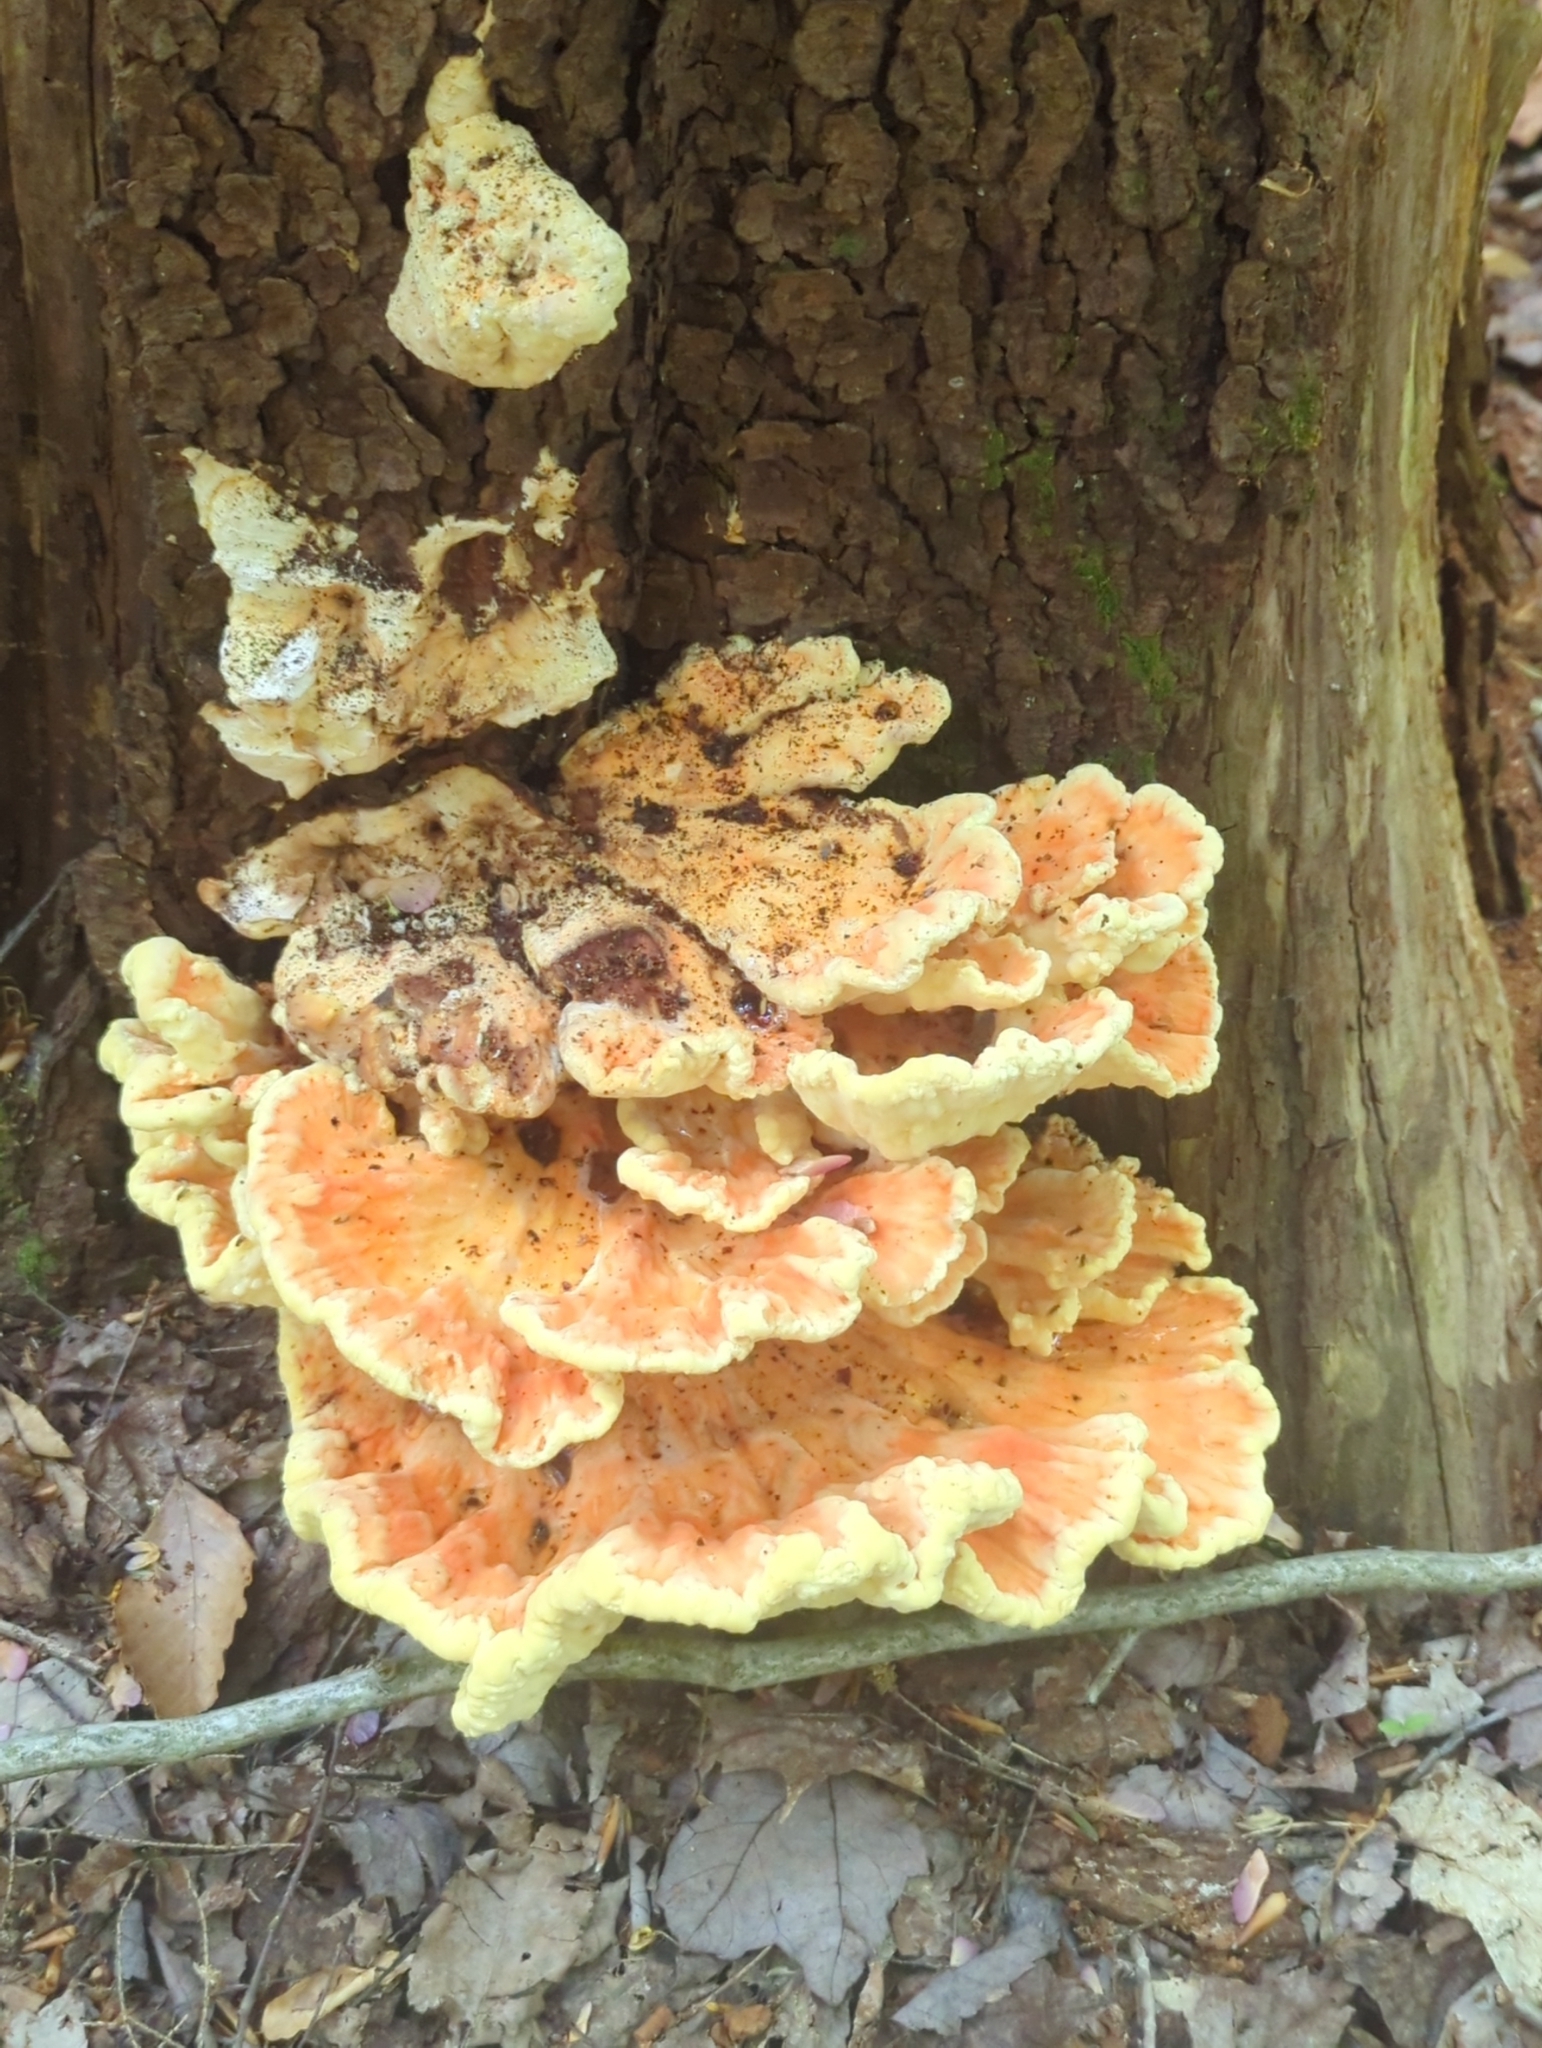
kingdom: Fungi
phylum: Basidiomycota
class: Agaricomycetes
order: Polyporales
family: Laetiporaceae
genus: Laetiporus
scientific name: Laetiporus sulphureus
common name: Chicken of the woods
